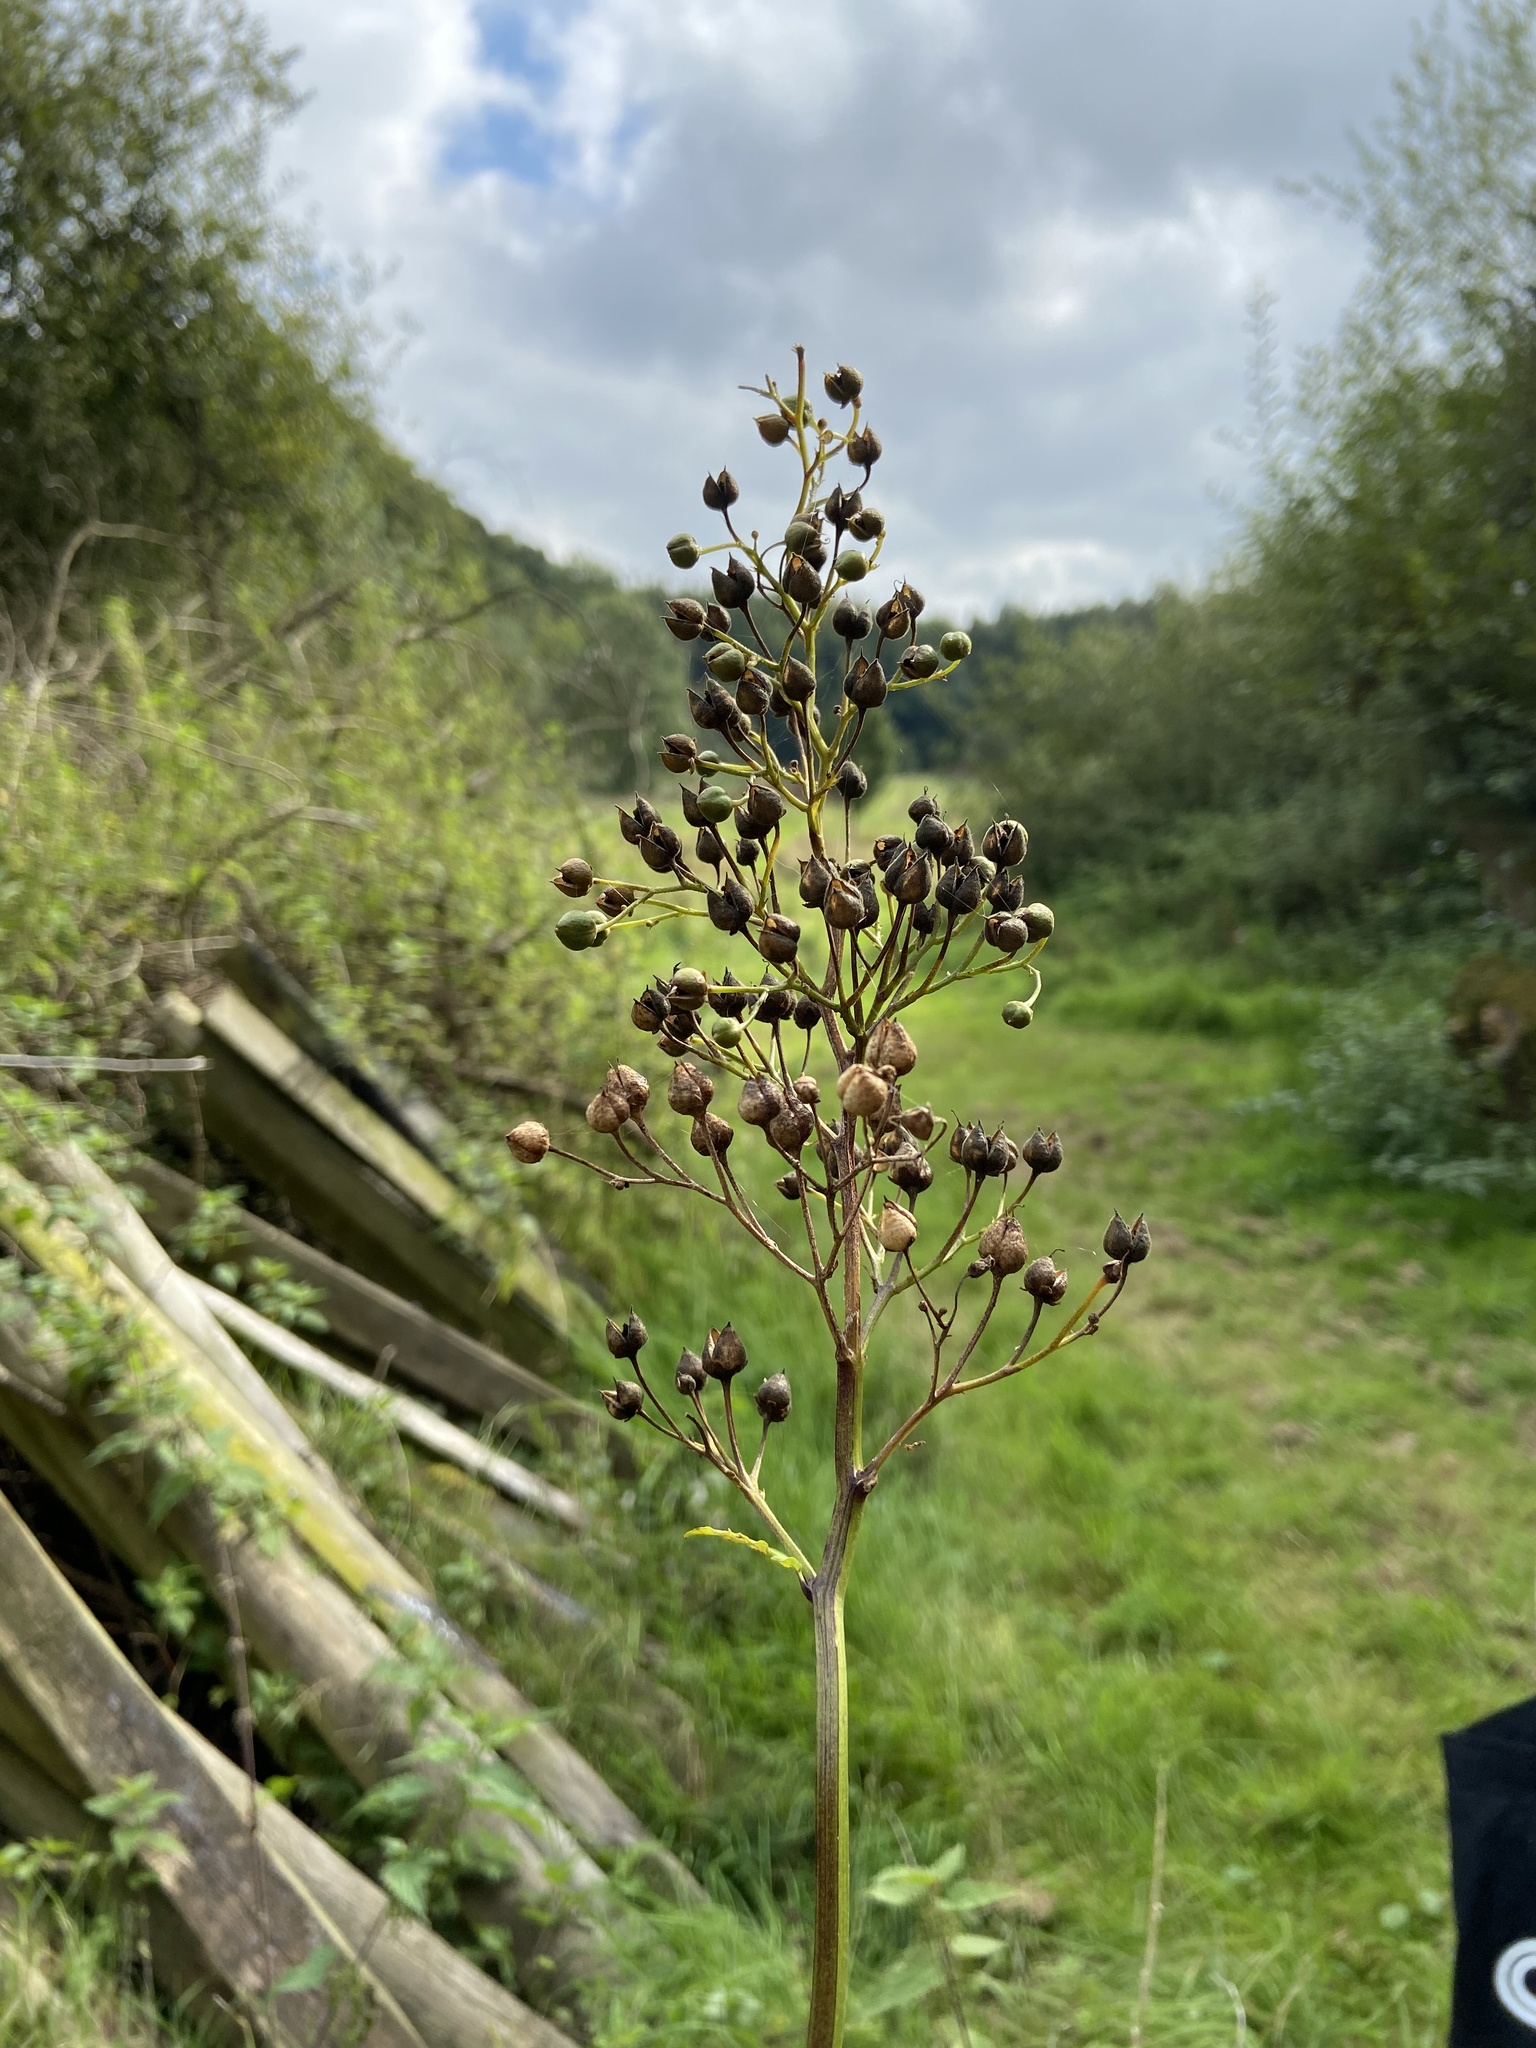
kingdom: Plantae
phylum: Tracheophyta
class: Magnoliopsida
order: Lamiales
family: Scrophulariaceae
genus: Scrophularia
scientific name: Scrophularia nodosa
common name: Common figwort
